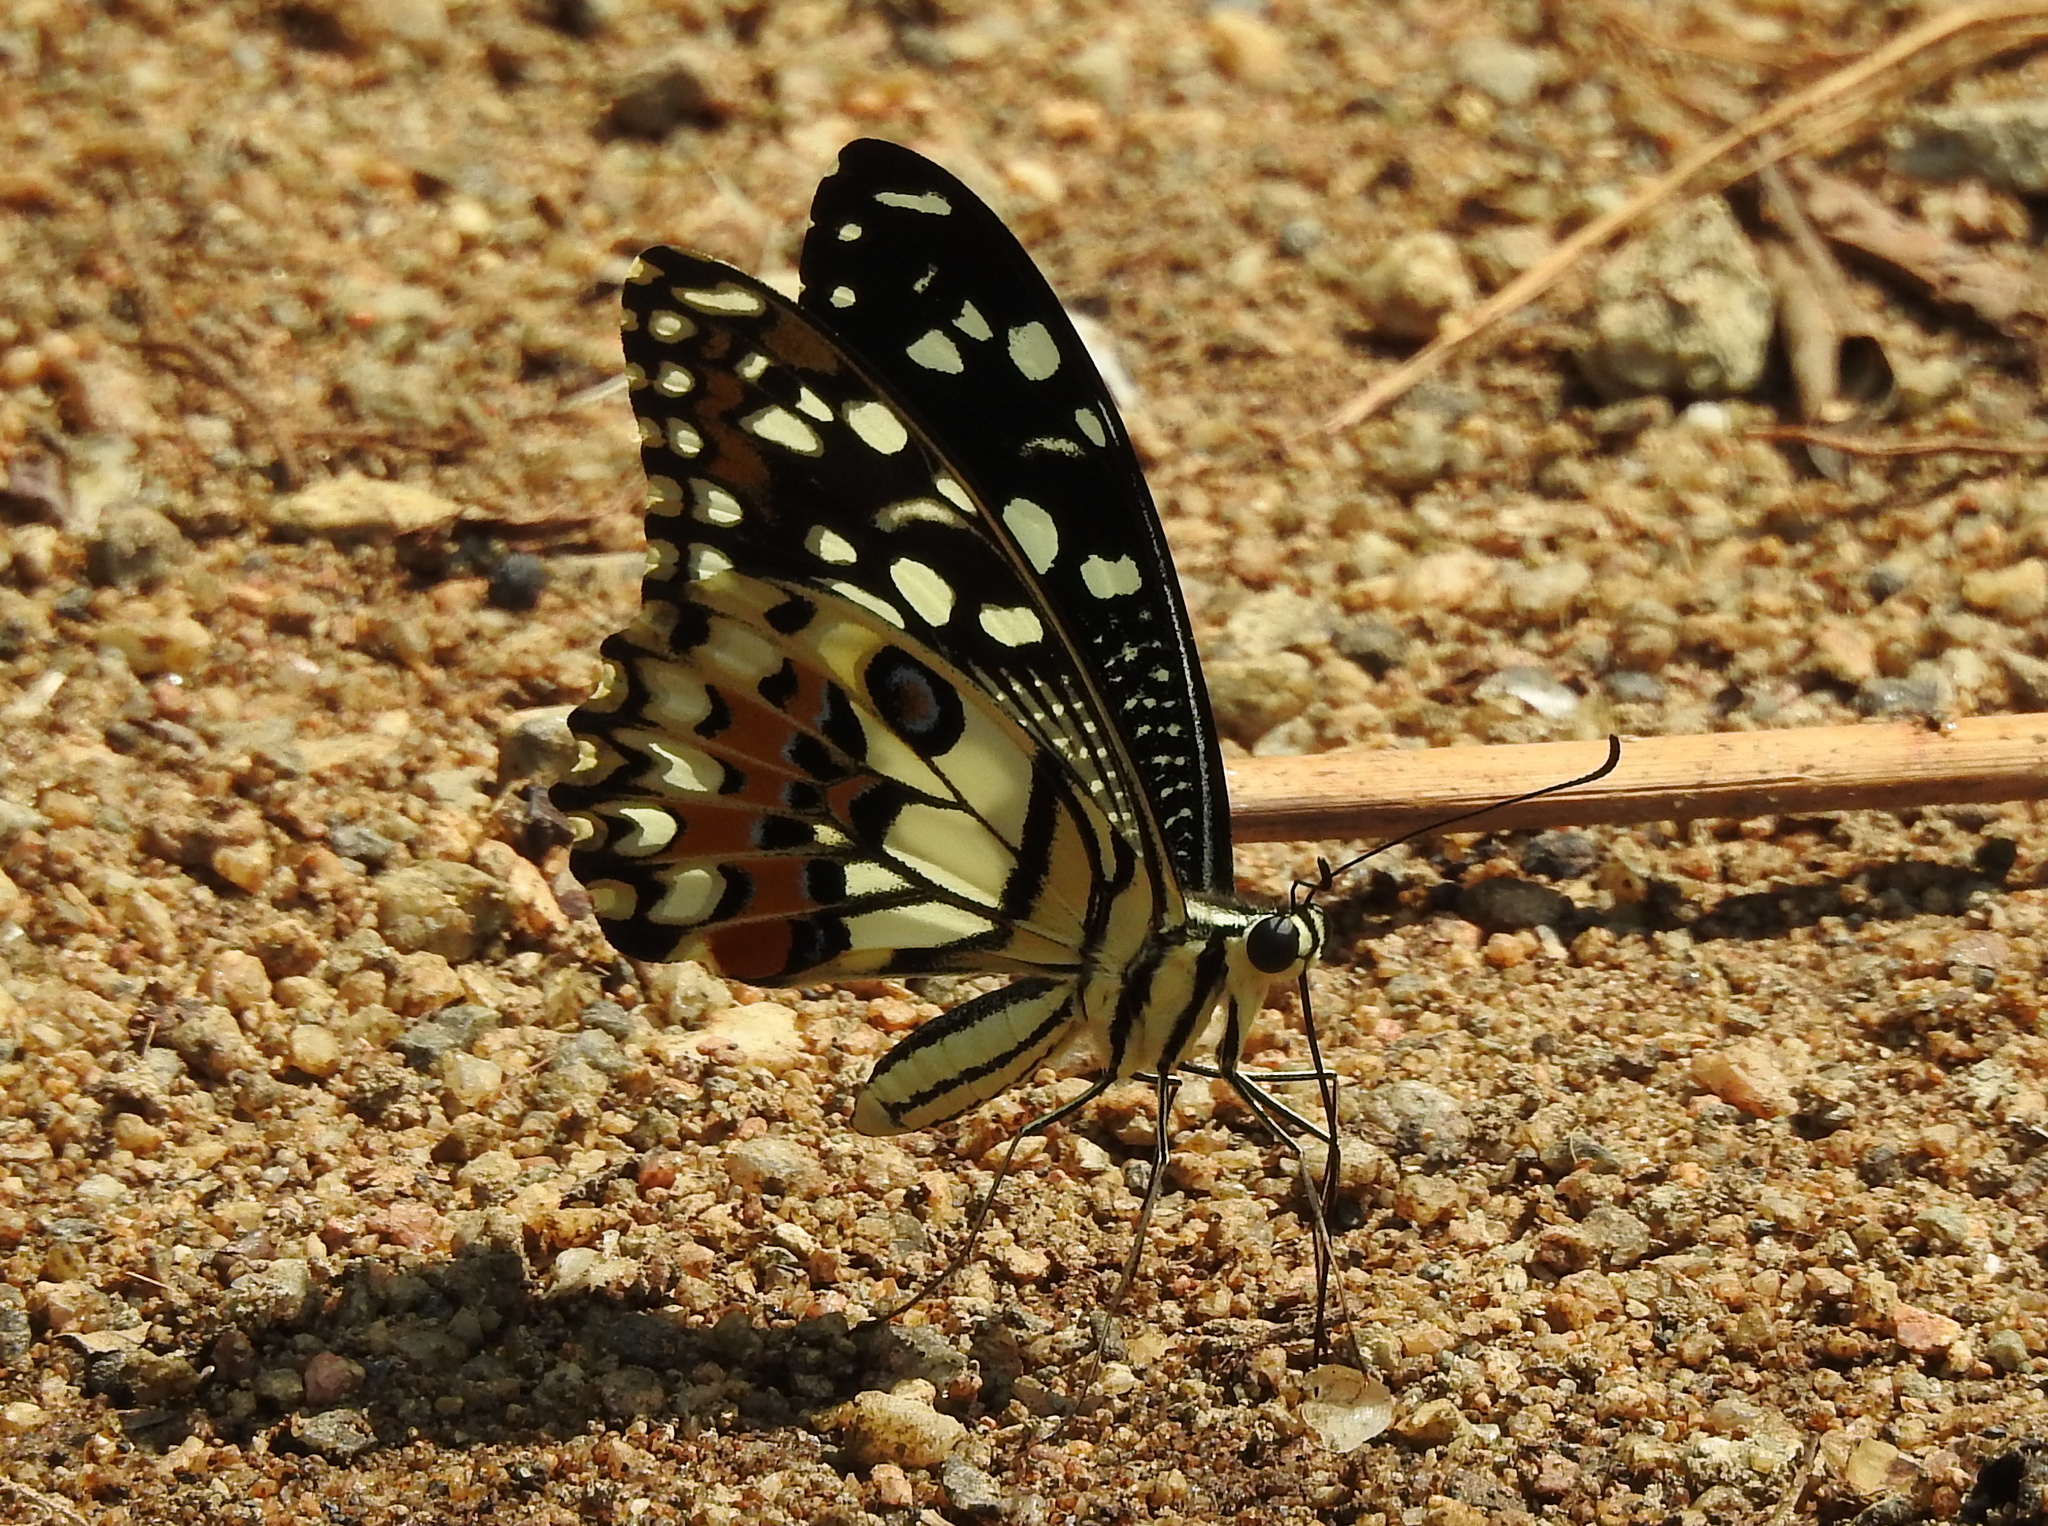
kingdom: Animalia
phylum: Arthropoda
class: Insecta
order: Lepidoptera
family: Papilionidae
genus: Papilio
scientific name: Papilio demoleus
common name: Lime butterfly
